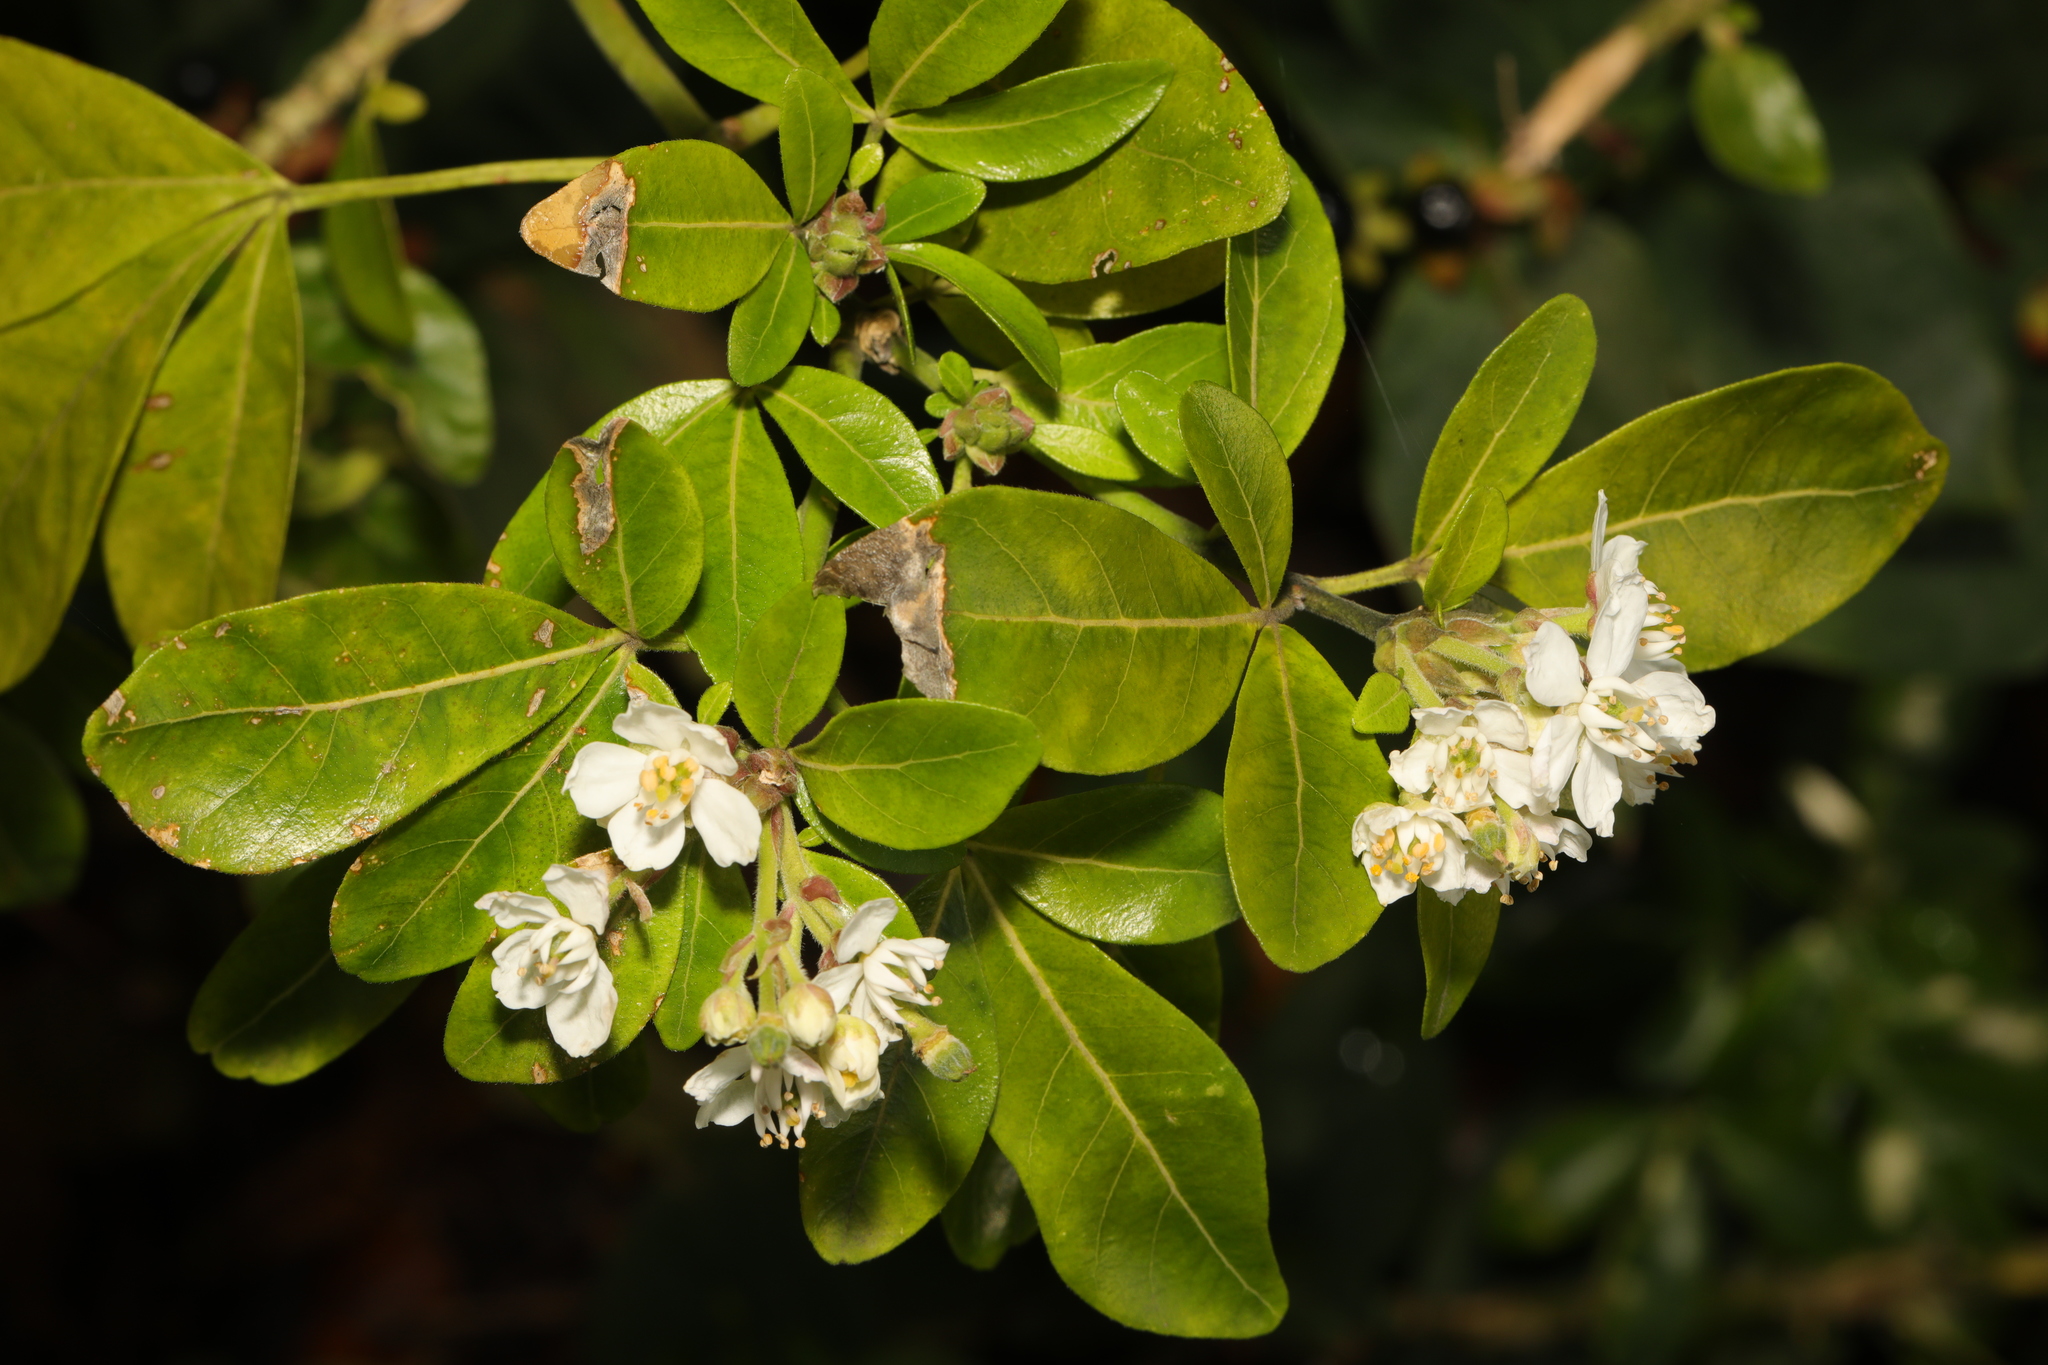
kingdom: Plantae
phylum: Tracheophyta
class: Magnoliopsida
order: Sapindales
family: Rutaceae
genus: Choisya
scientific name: Choisya ternata
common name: Mexican orange
